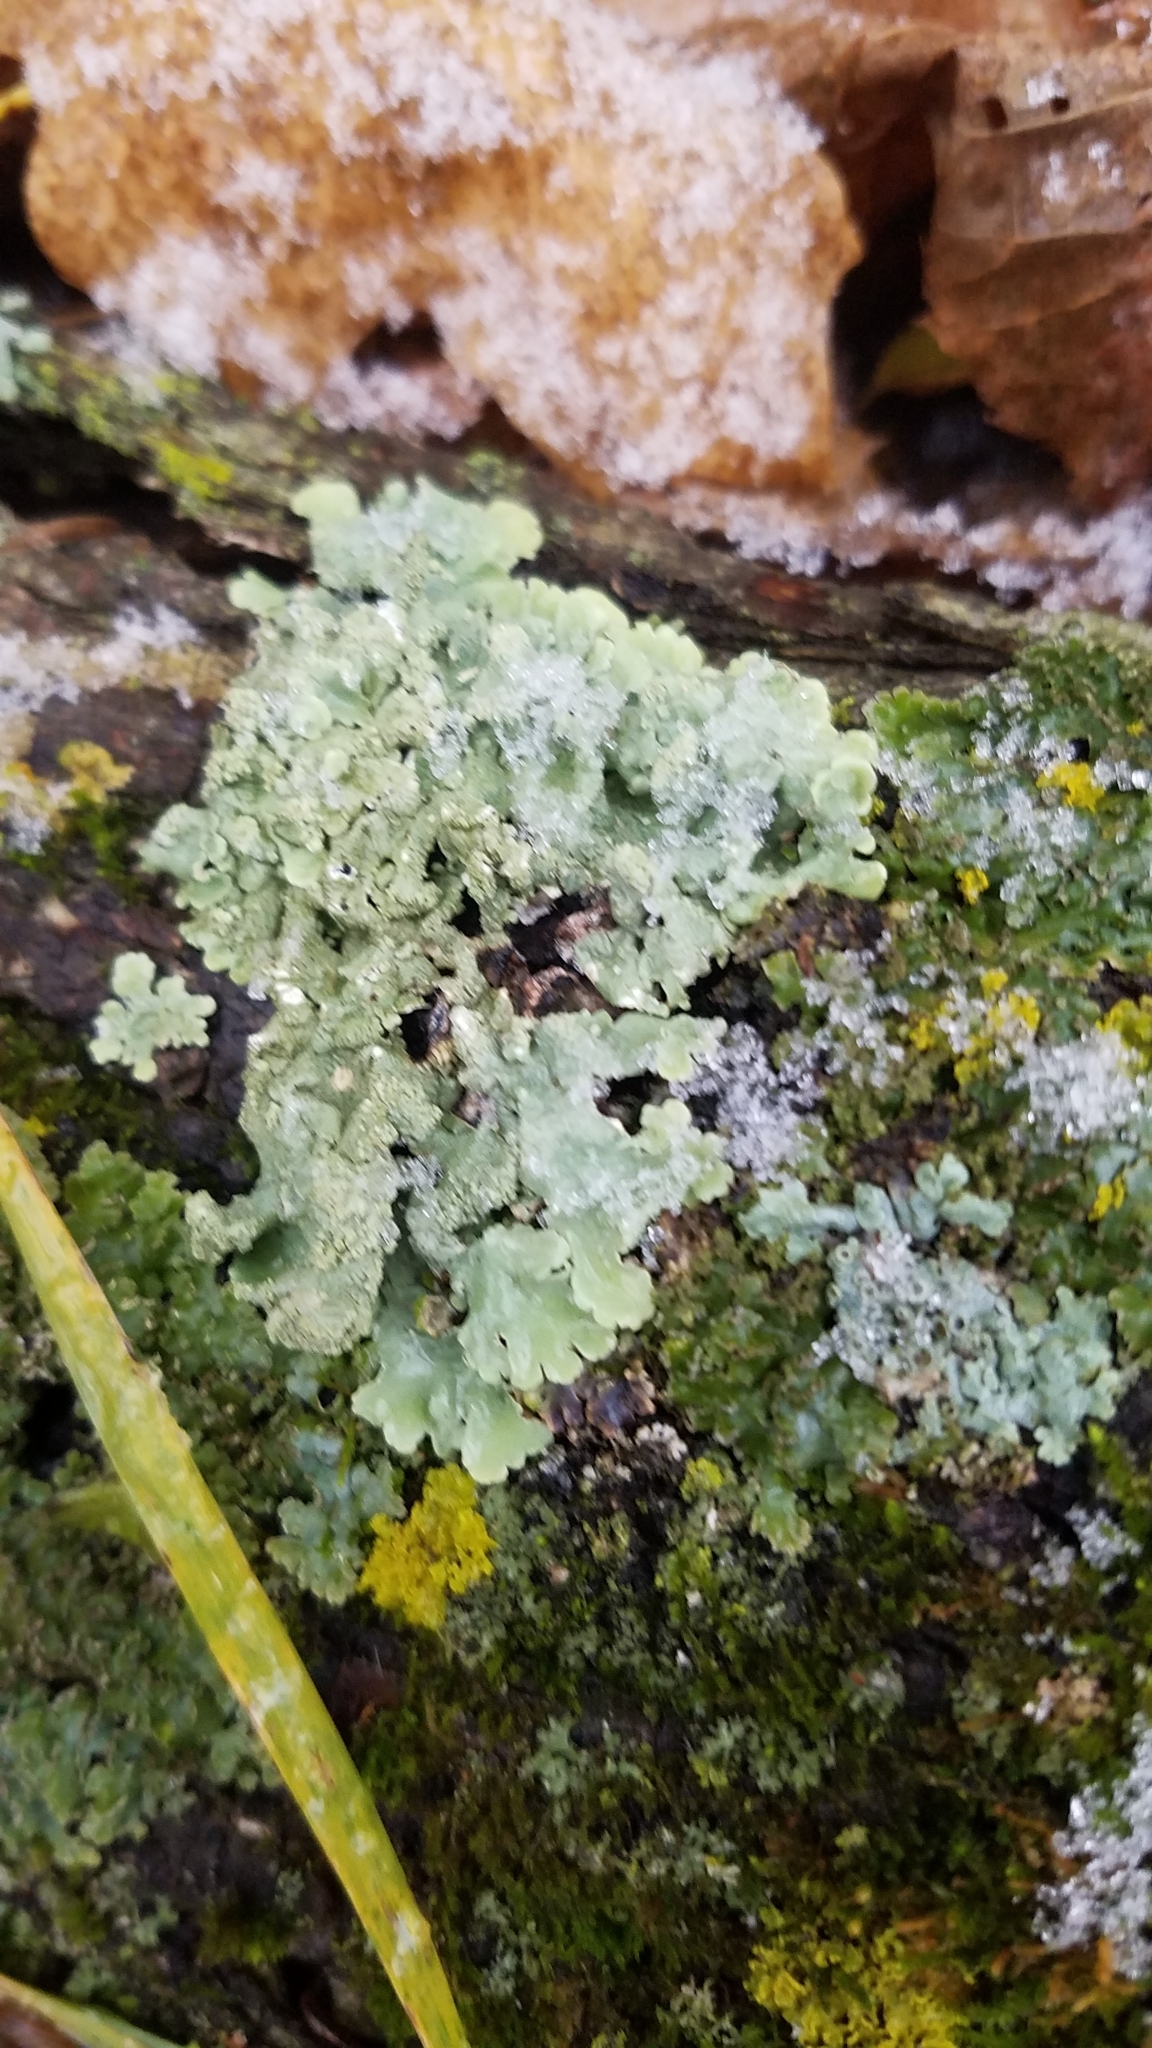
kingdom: Fungi
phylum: Ascomycota
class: Lecanoromycetes
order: Lecanorales
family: Parmeliaceae
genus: Flavoparmelia
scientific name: Flavoparmelia caperata
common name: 40-mile per hour lichen
